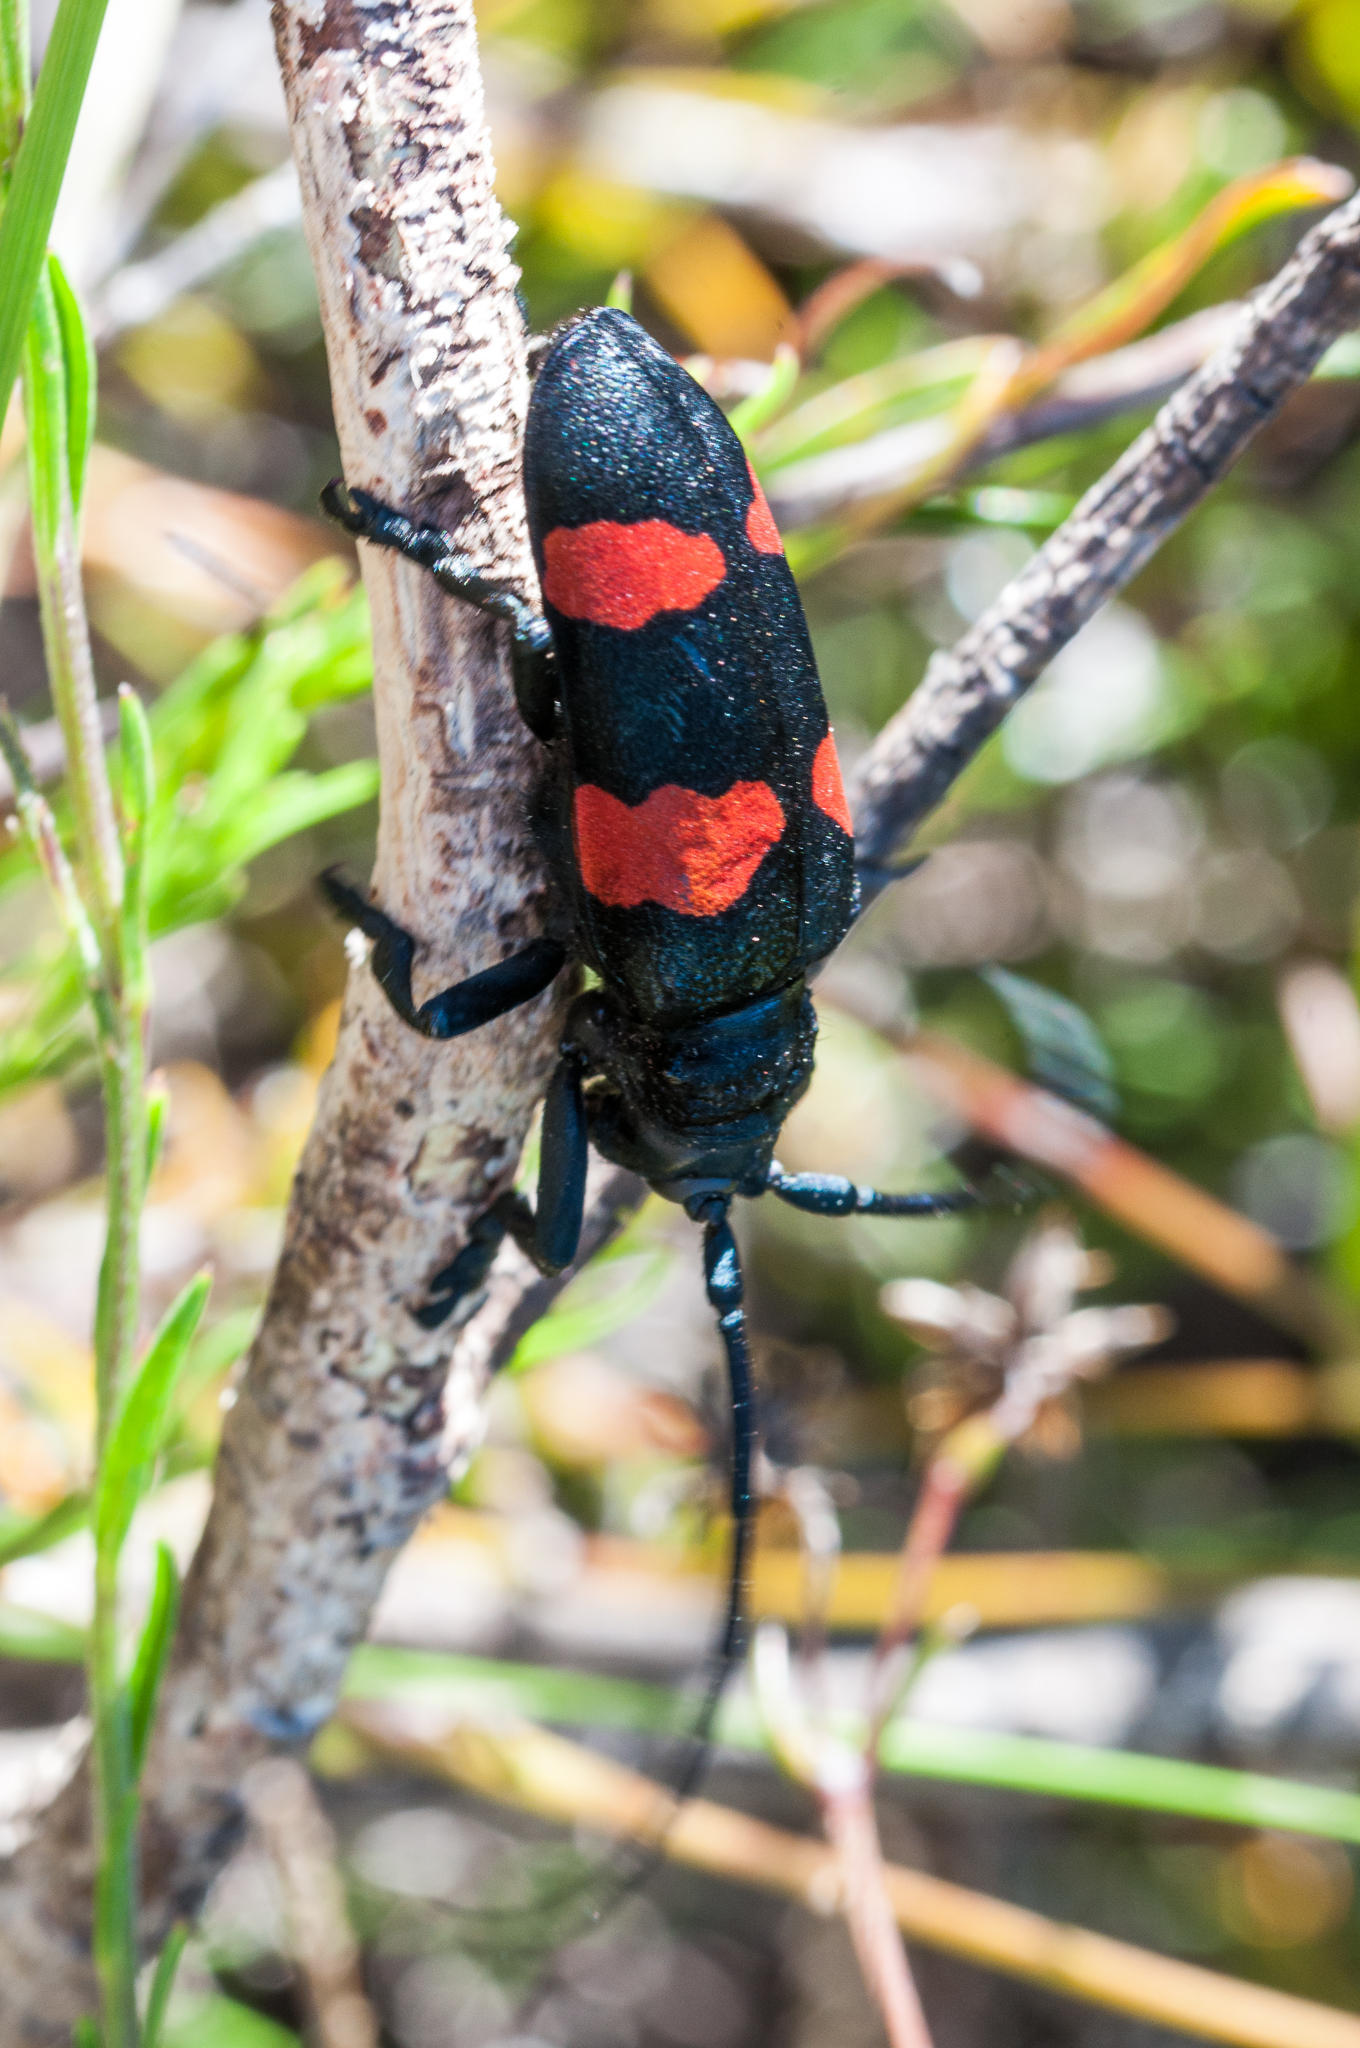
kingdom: Animalia
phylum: Arthropoda
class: Insecta
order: Coleoptera
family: Cerambycidae
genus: Ceroplesis
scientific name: Ceroplesis aethiops
